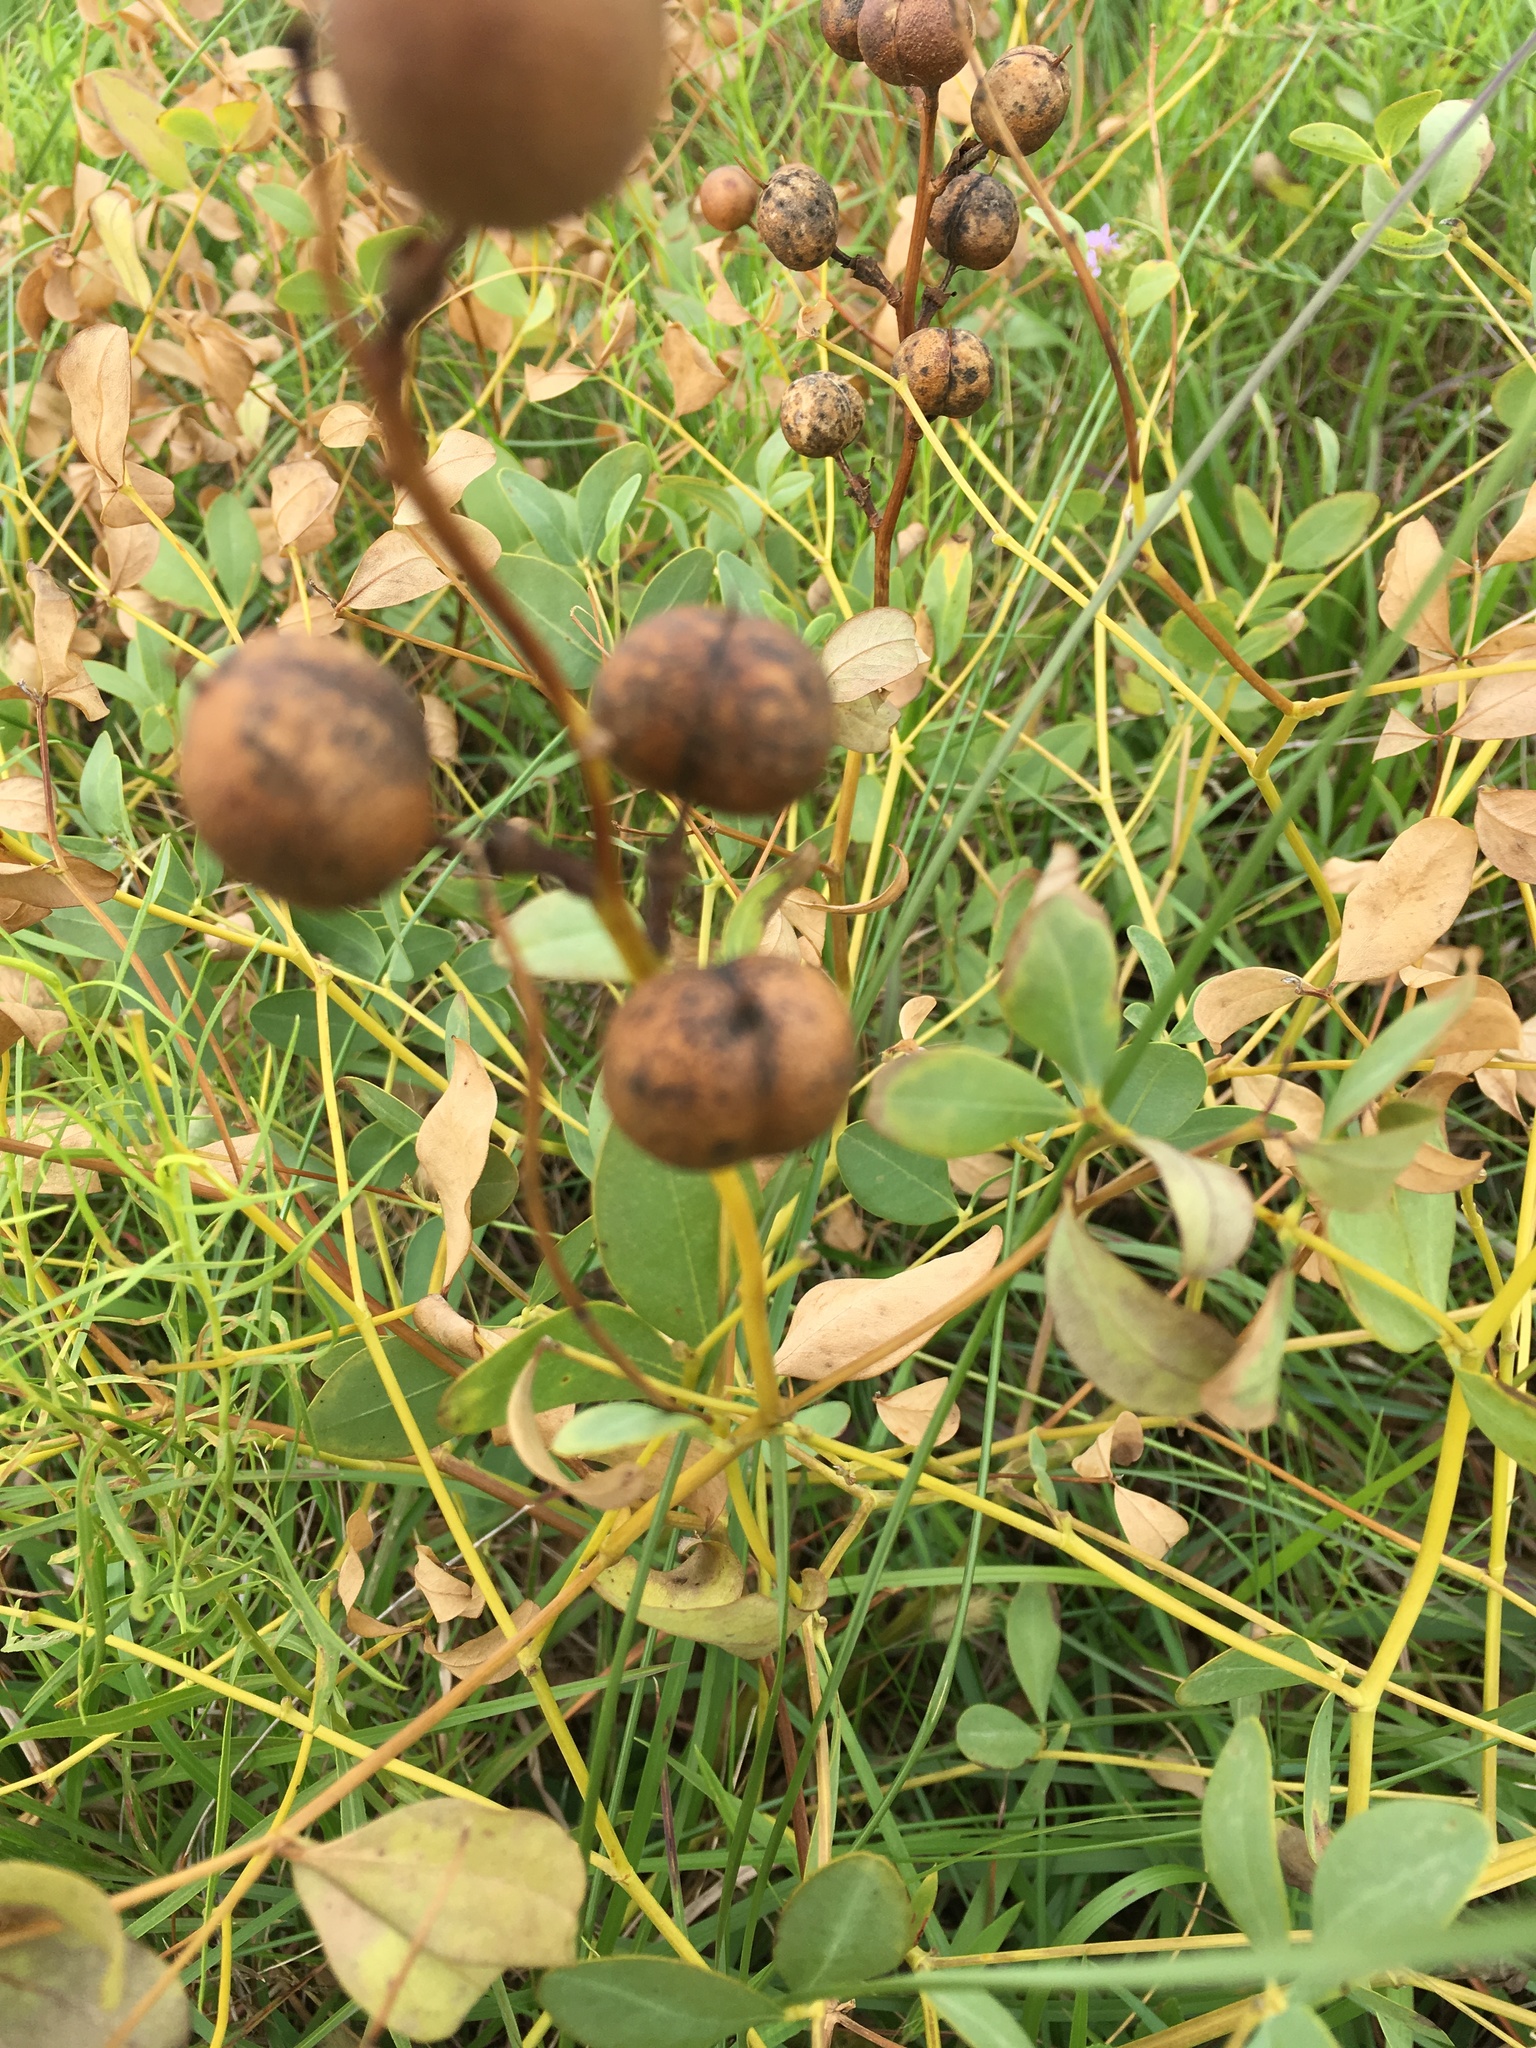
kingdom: Plantae
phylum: Tracheophyta
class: Magnoliopsida
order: Fabales
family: Fabaceae
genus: Baptisia
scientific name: Baptisia sphaerocarpa
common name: Round wild indigo
